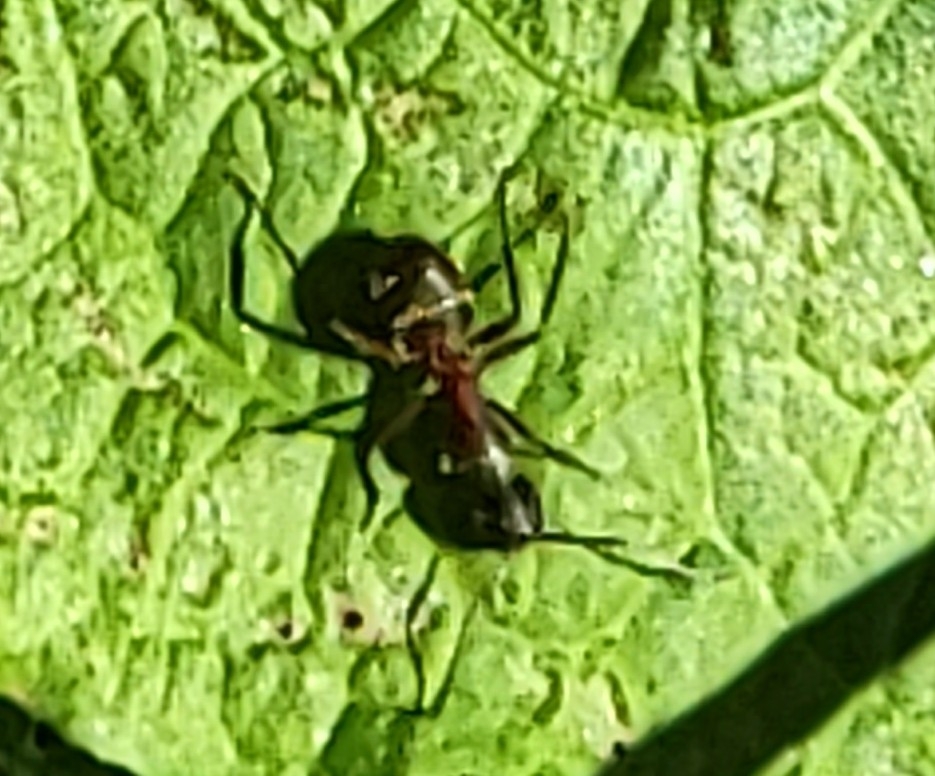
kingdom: Animalia
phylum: Arthropoda
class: Insecta
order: Hymenoptera
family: Formicidae
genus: Camponotus
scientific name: Camponotus chromaiodes
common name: Red carpenter ant
